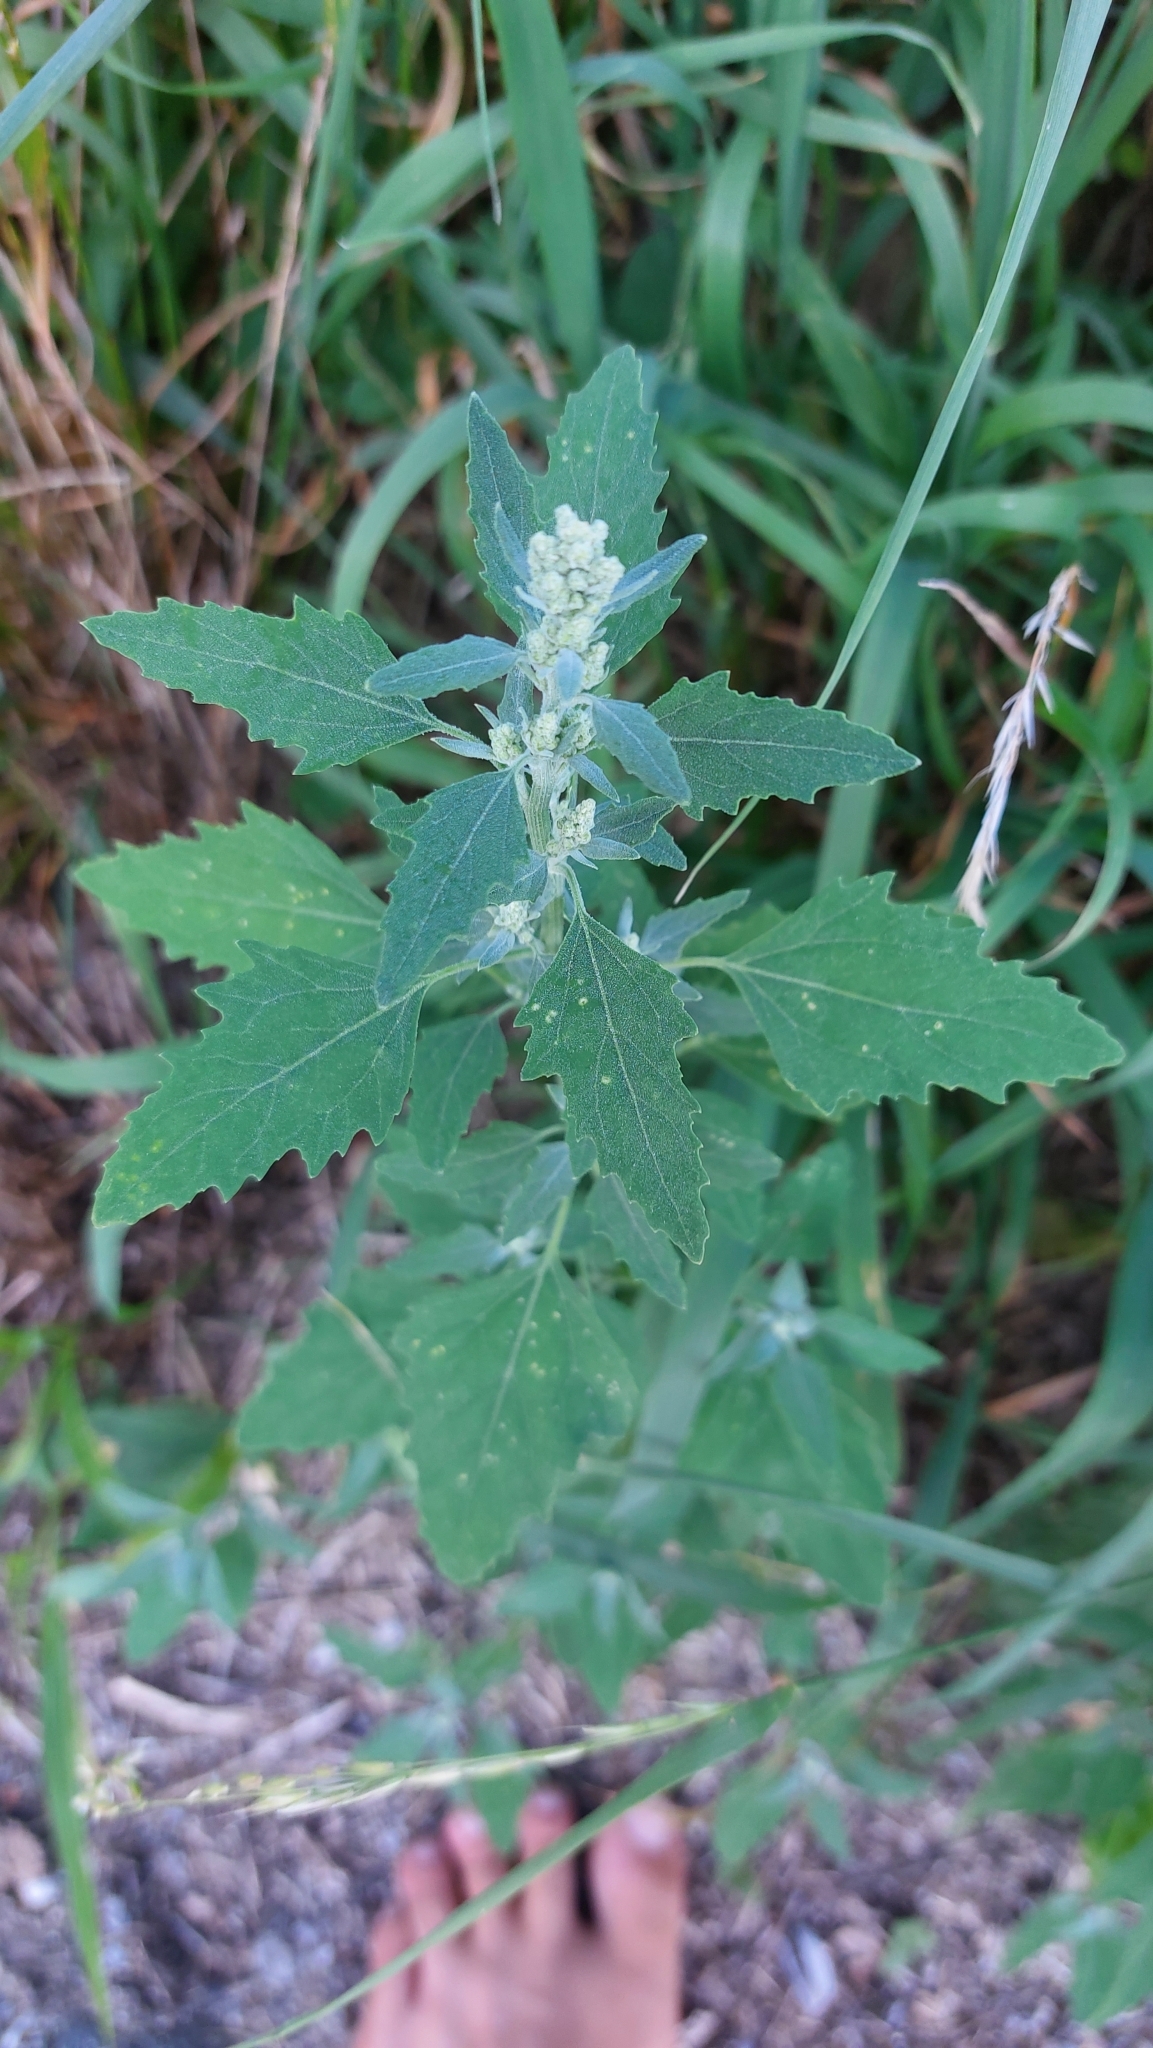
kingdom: Plantae
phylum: Tracheophyta
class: Magnoliopsida
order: Caryophyllales
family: Amaranthaceae
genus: Chenopodium
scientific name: Chenopodium album
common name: Fat-hen
